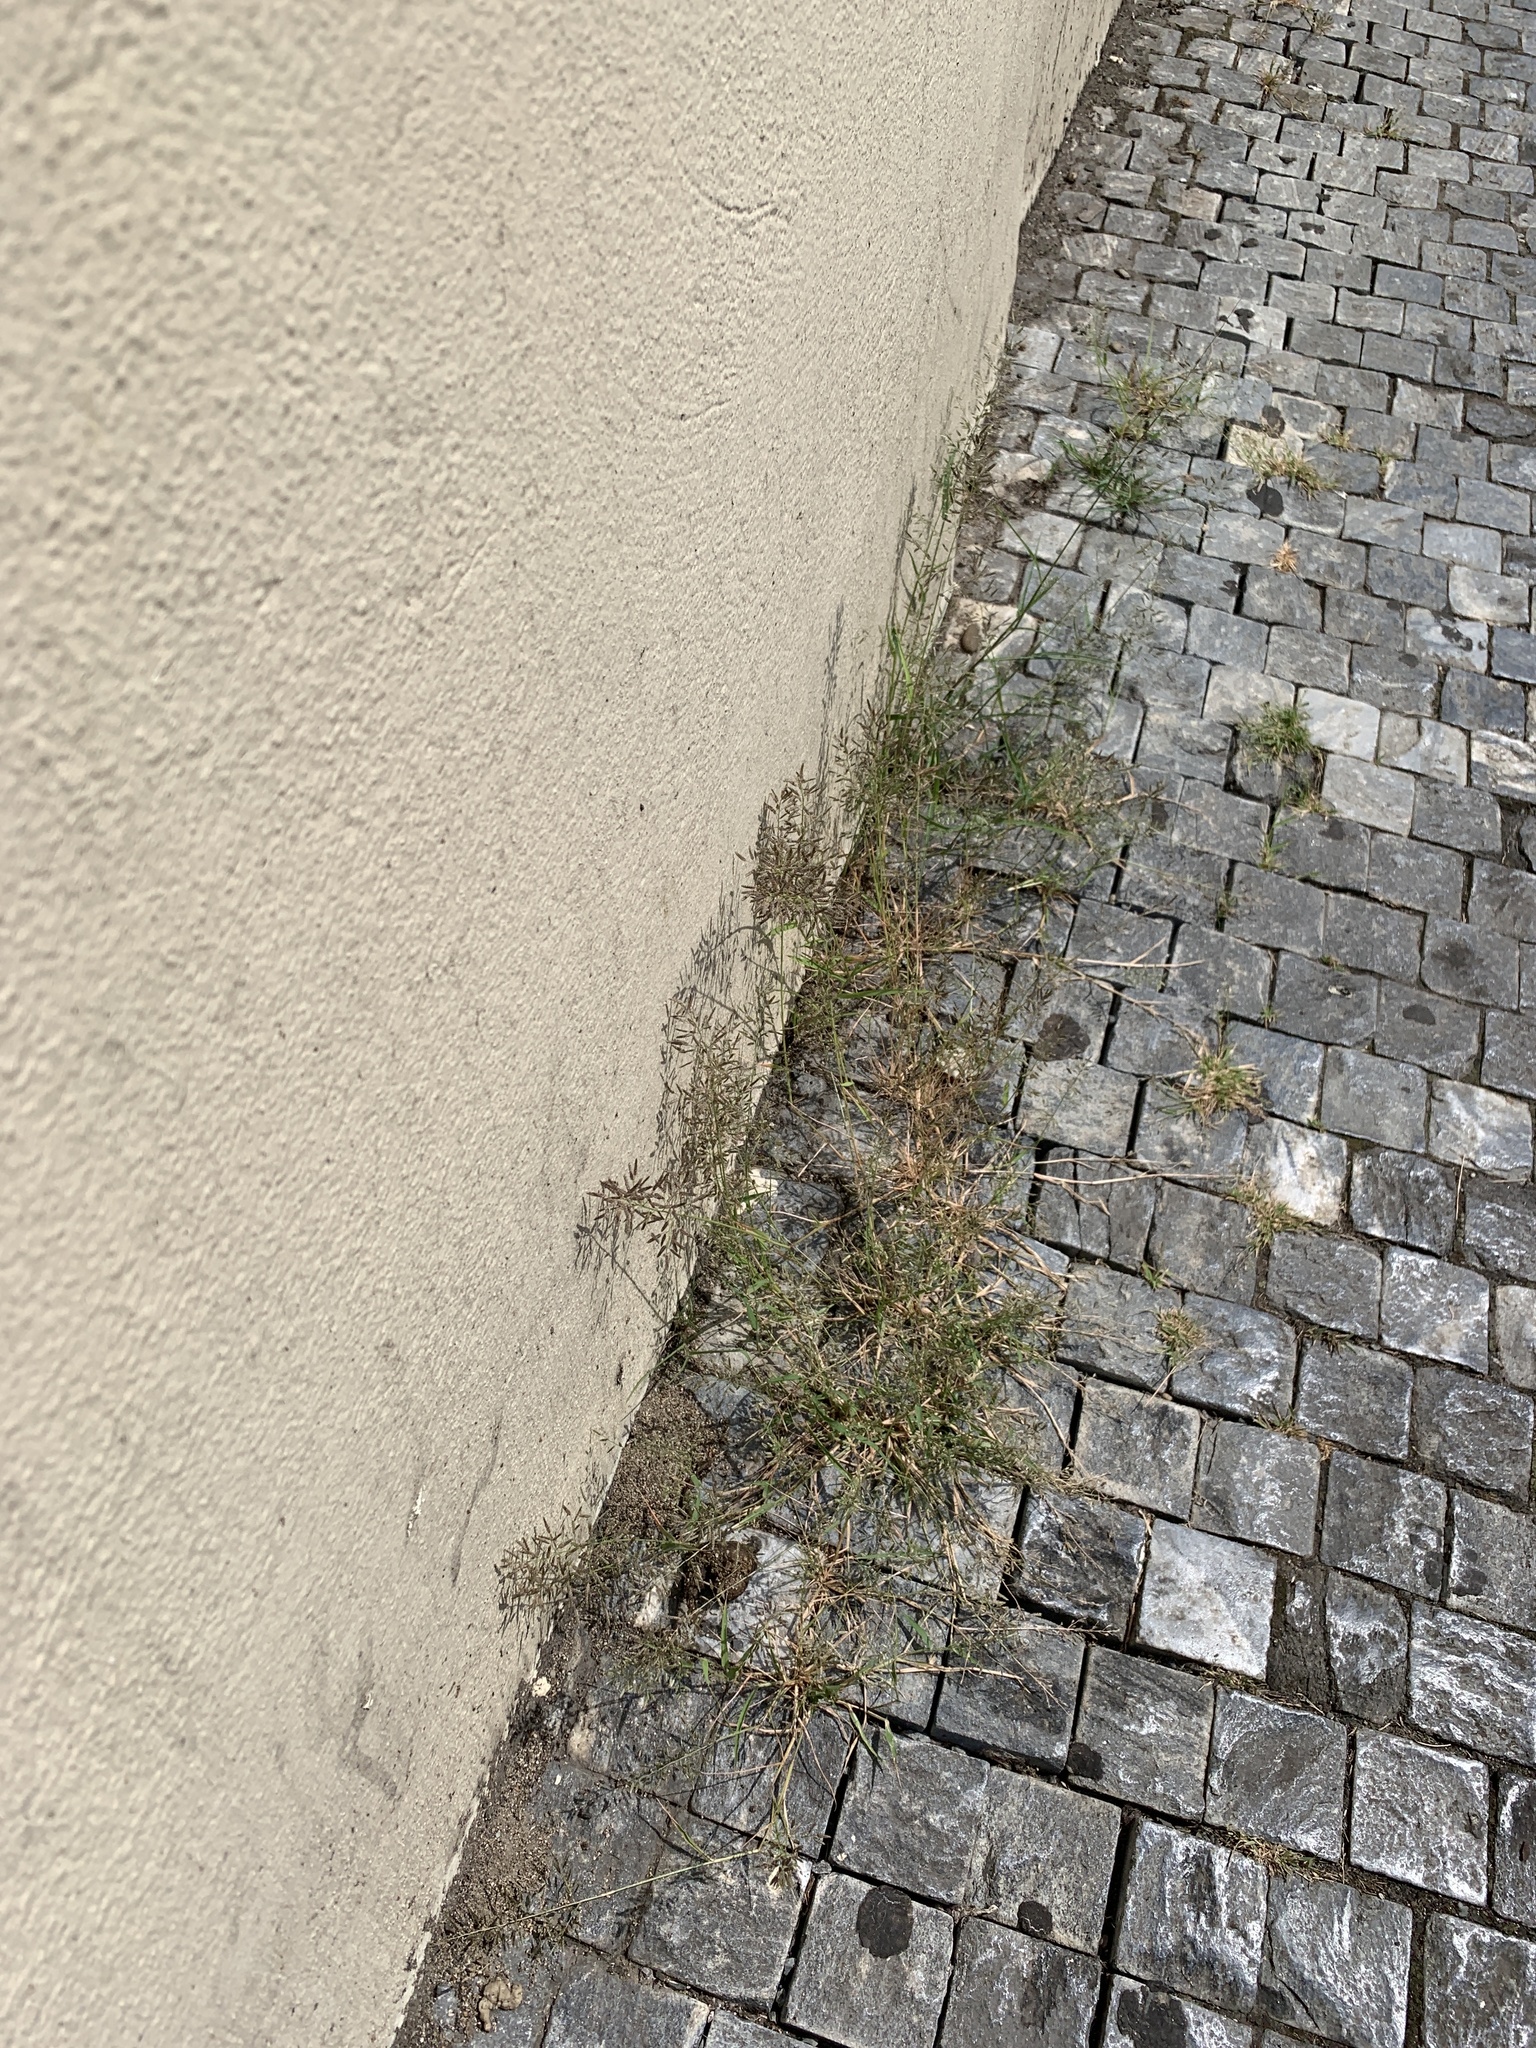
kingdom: Plantae
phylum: Tracheophyta
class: Liliopsida
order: Poales
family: Poaceae
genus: Eragrostis
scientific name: Eragrostis minor
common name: Small love-grass
